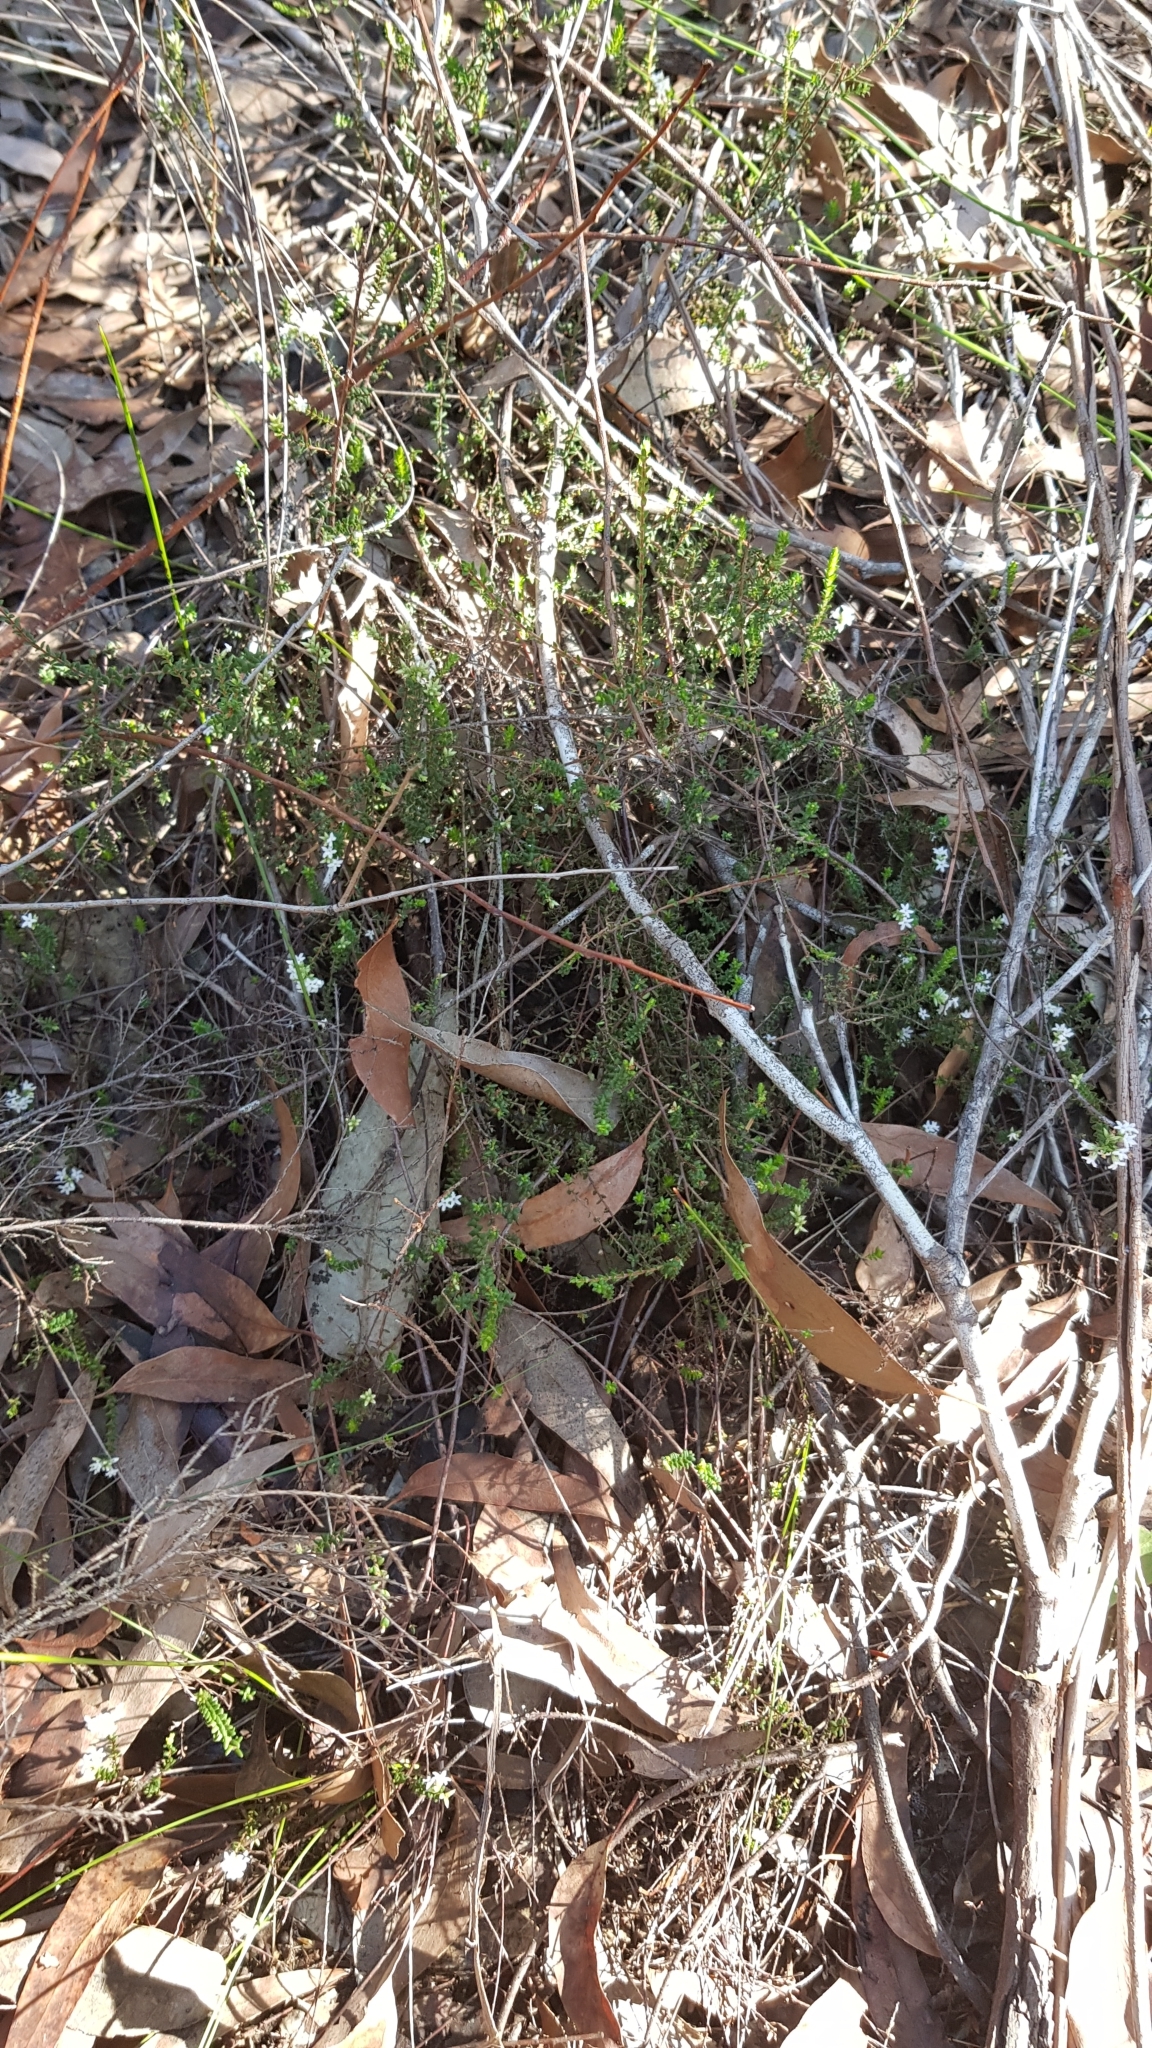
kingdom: Plantae
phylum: Tracheophyta
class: Magnoliopsida
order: Ericales
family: Ericaceae
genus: Leucopogon
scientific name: Leucopogon microphyllus
